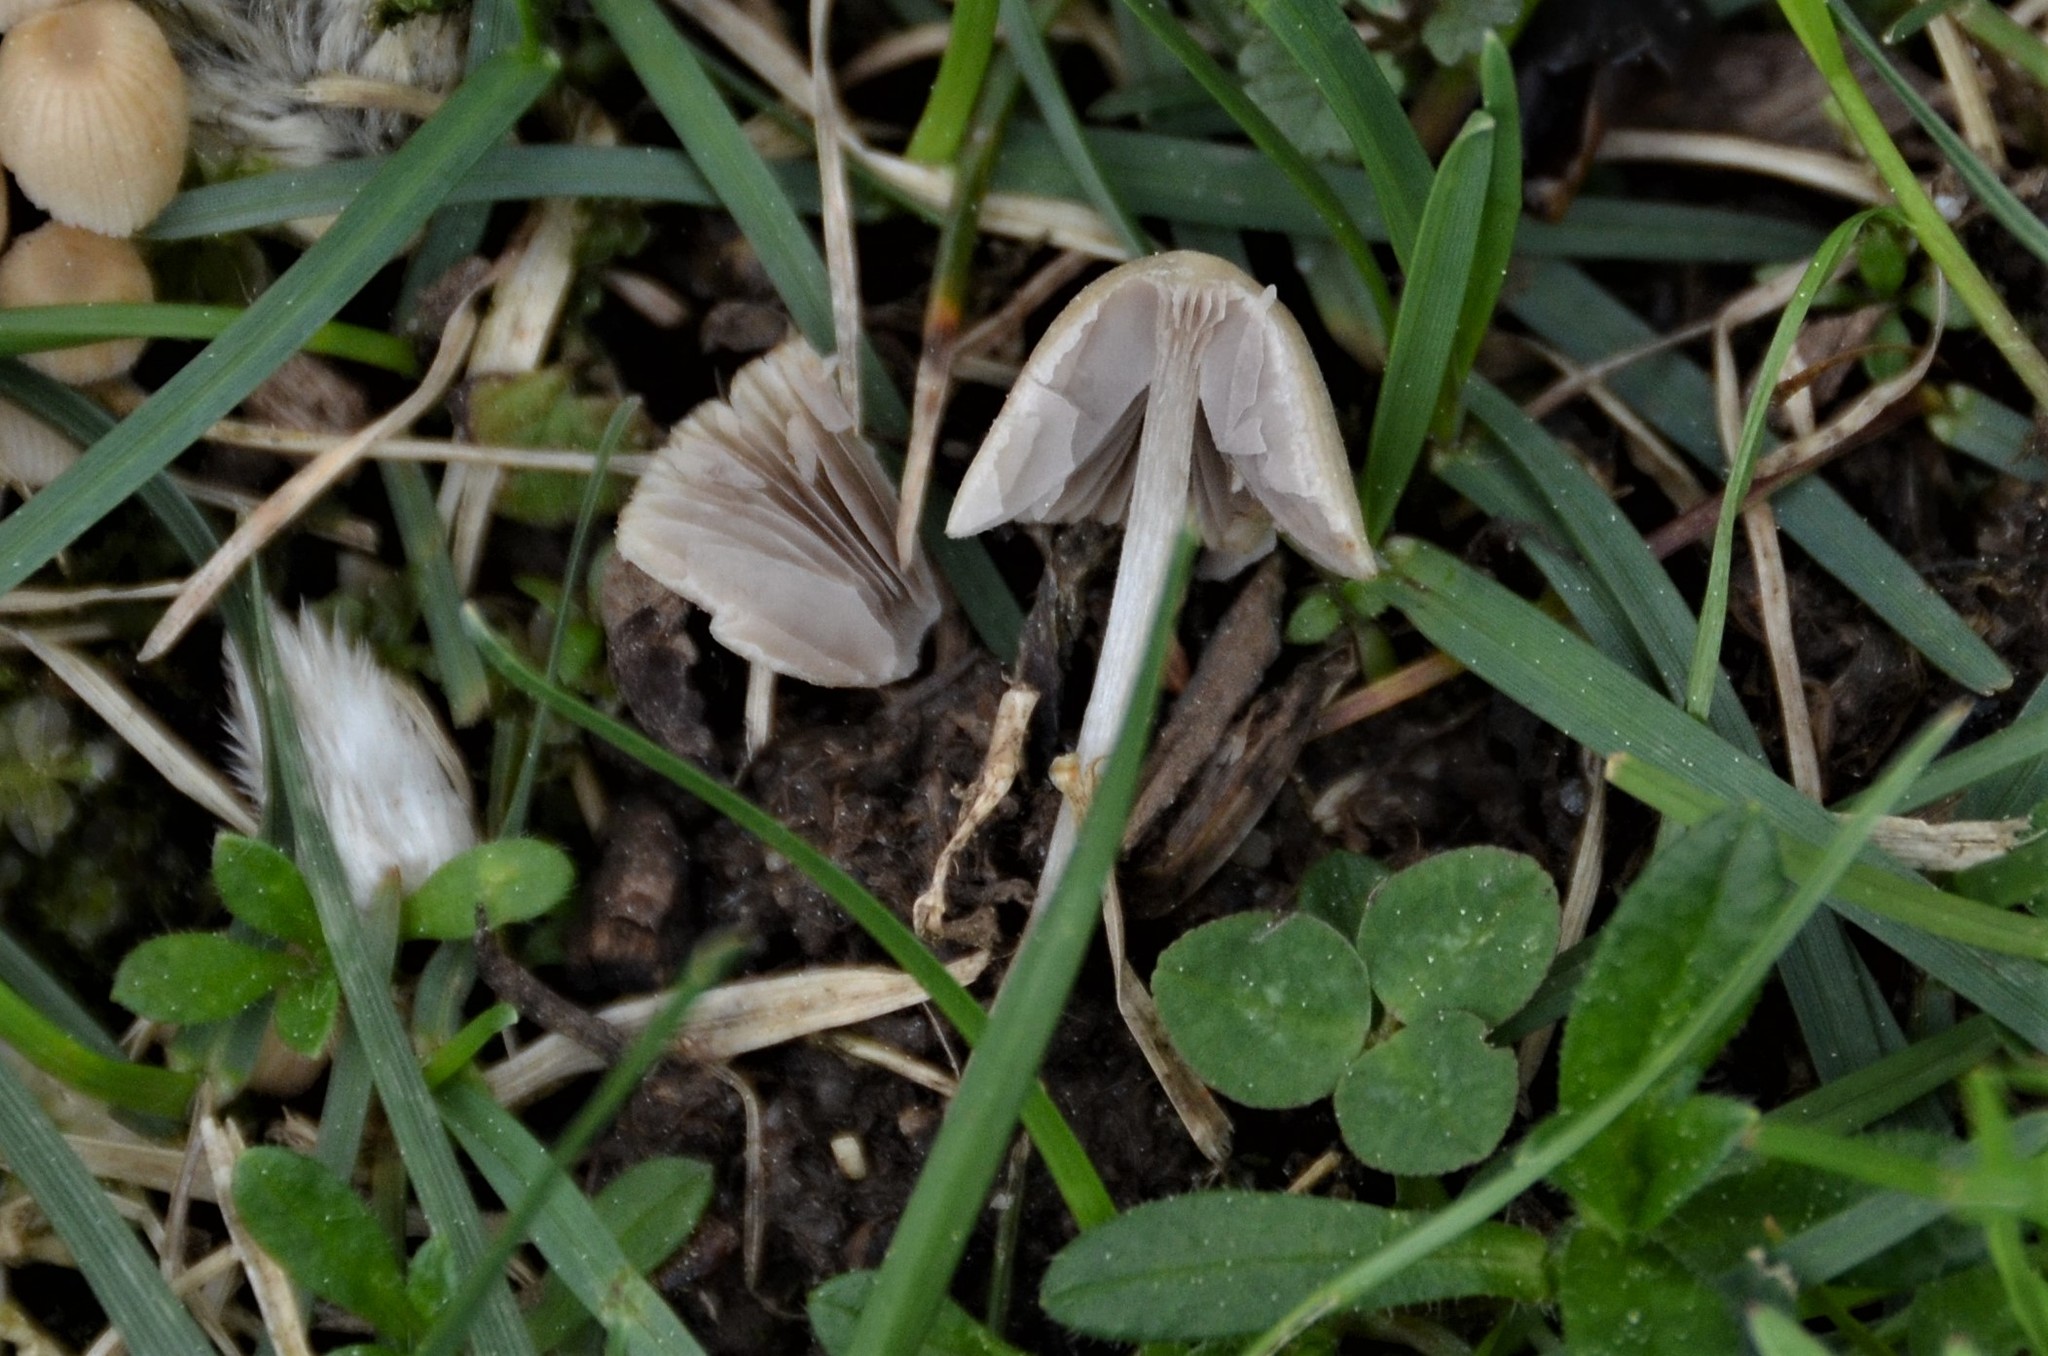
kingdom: Fungi
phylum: Basidiomycota
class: Agaricomycetes
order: Agaricales
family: Psathyrellaceae
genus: Coprinellus
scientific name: Coprinellus disseminatus
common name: Fairies' bonnets
